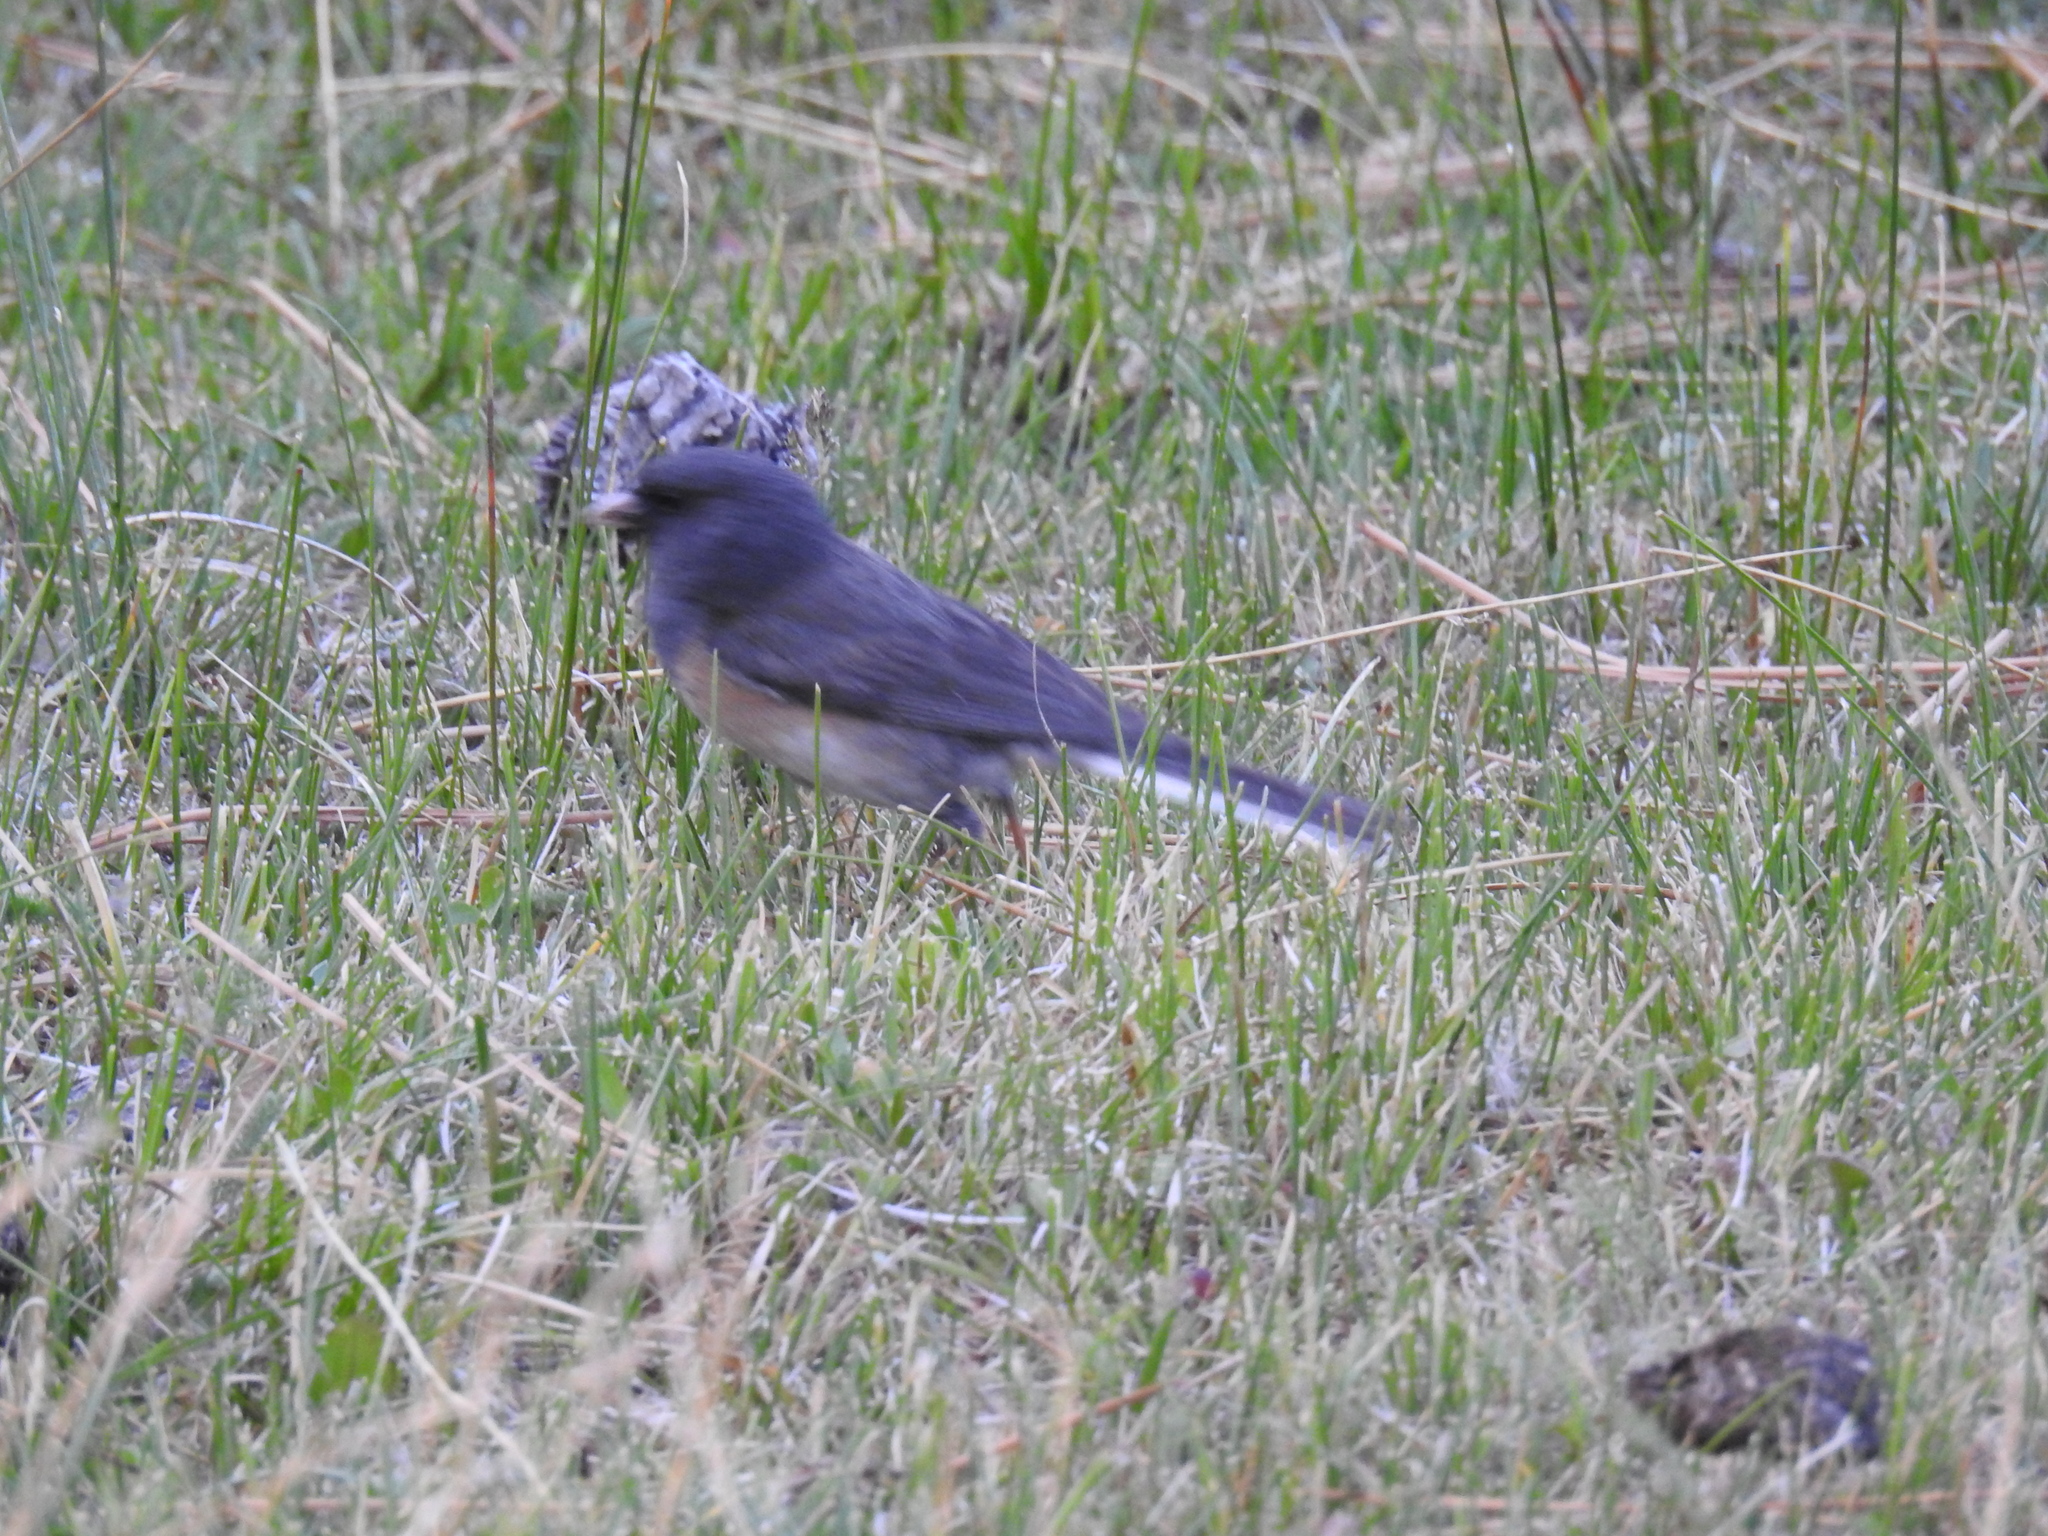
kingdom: Animalia
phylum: Chordata
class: Aves
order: Passeriformes
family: Passerellidae
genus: Junco
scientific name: Junco hyemalis
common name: Dark-eyed junco
